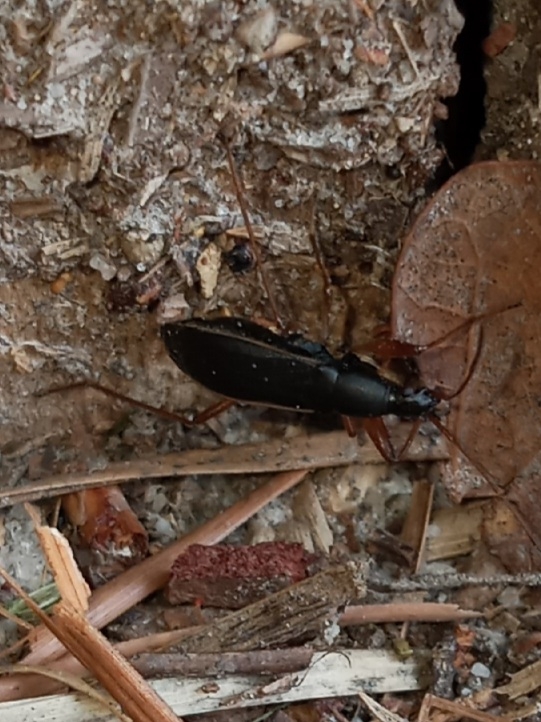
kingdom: Animalia
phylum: Arthropoda
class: Insecta
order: Hemiptera
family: Rhyparochromidae
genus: Cnemodus
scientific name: Cnemodus mavortius
